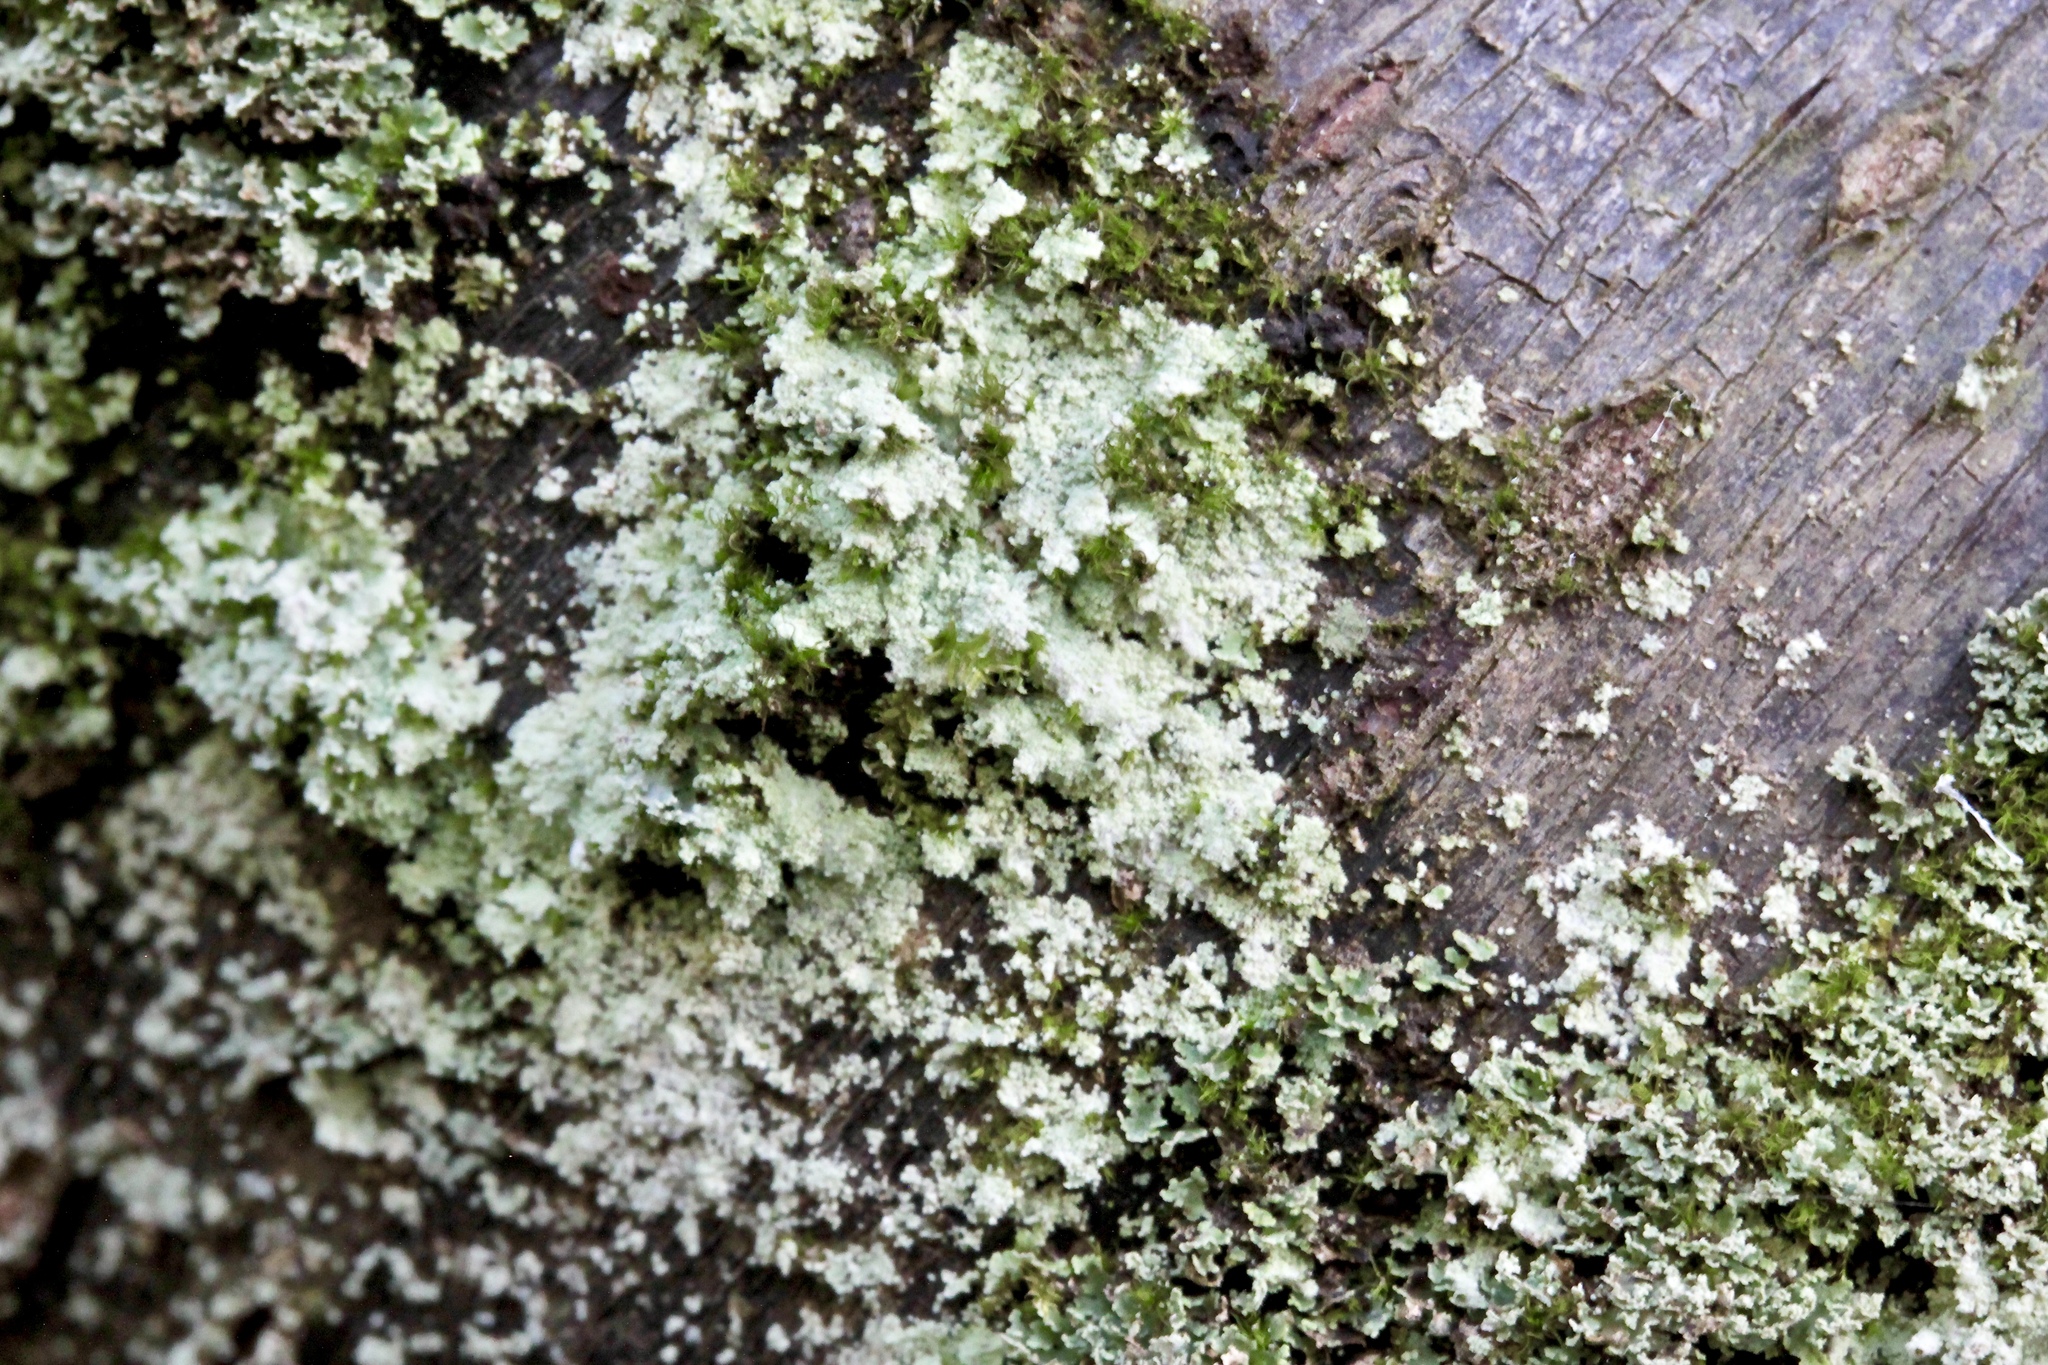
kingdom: Fungi
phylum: Ascomycota
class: Lecanoromycetes
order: Lecanorales
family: Stereocaulaceae
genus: Lepraria
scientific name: Lepraria lobificans
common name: Fluffy dust lichen
